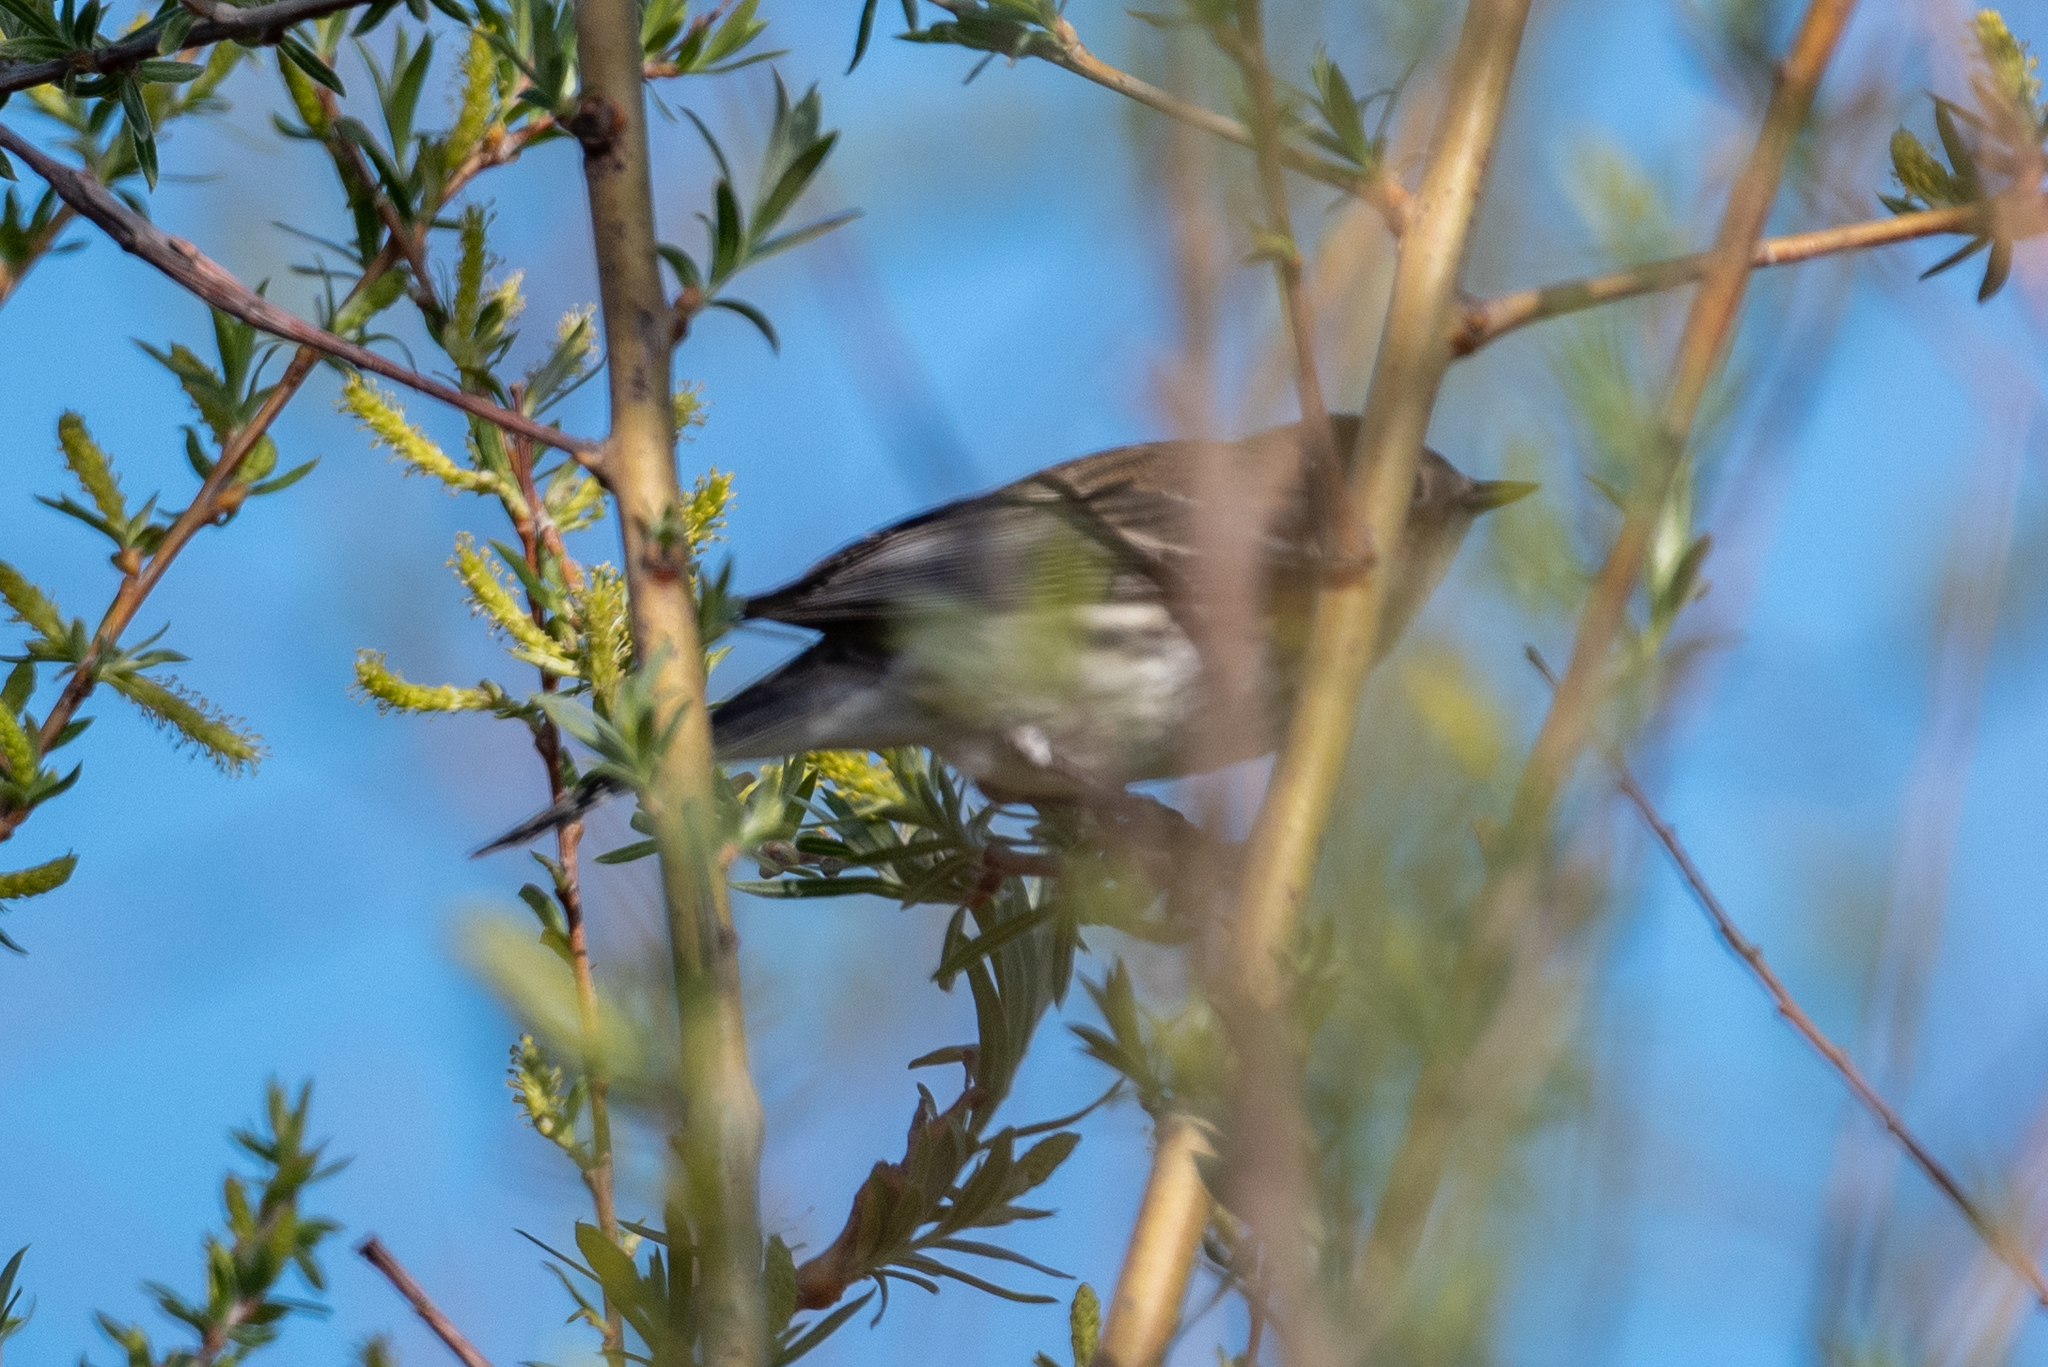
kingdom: Animalia
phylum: Chordata
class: Aves
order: Passeriformes
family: Parulidae
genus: Setophaga
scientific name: Setophaga coronata
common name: Myrtle warbler
